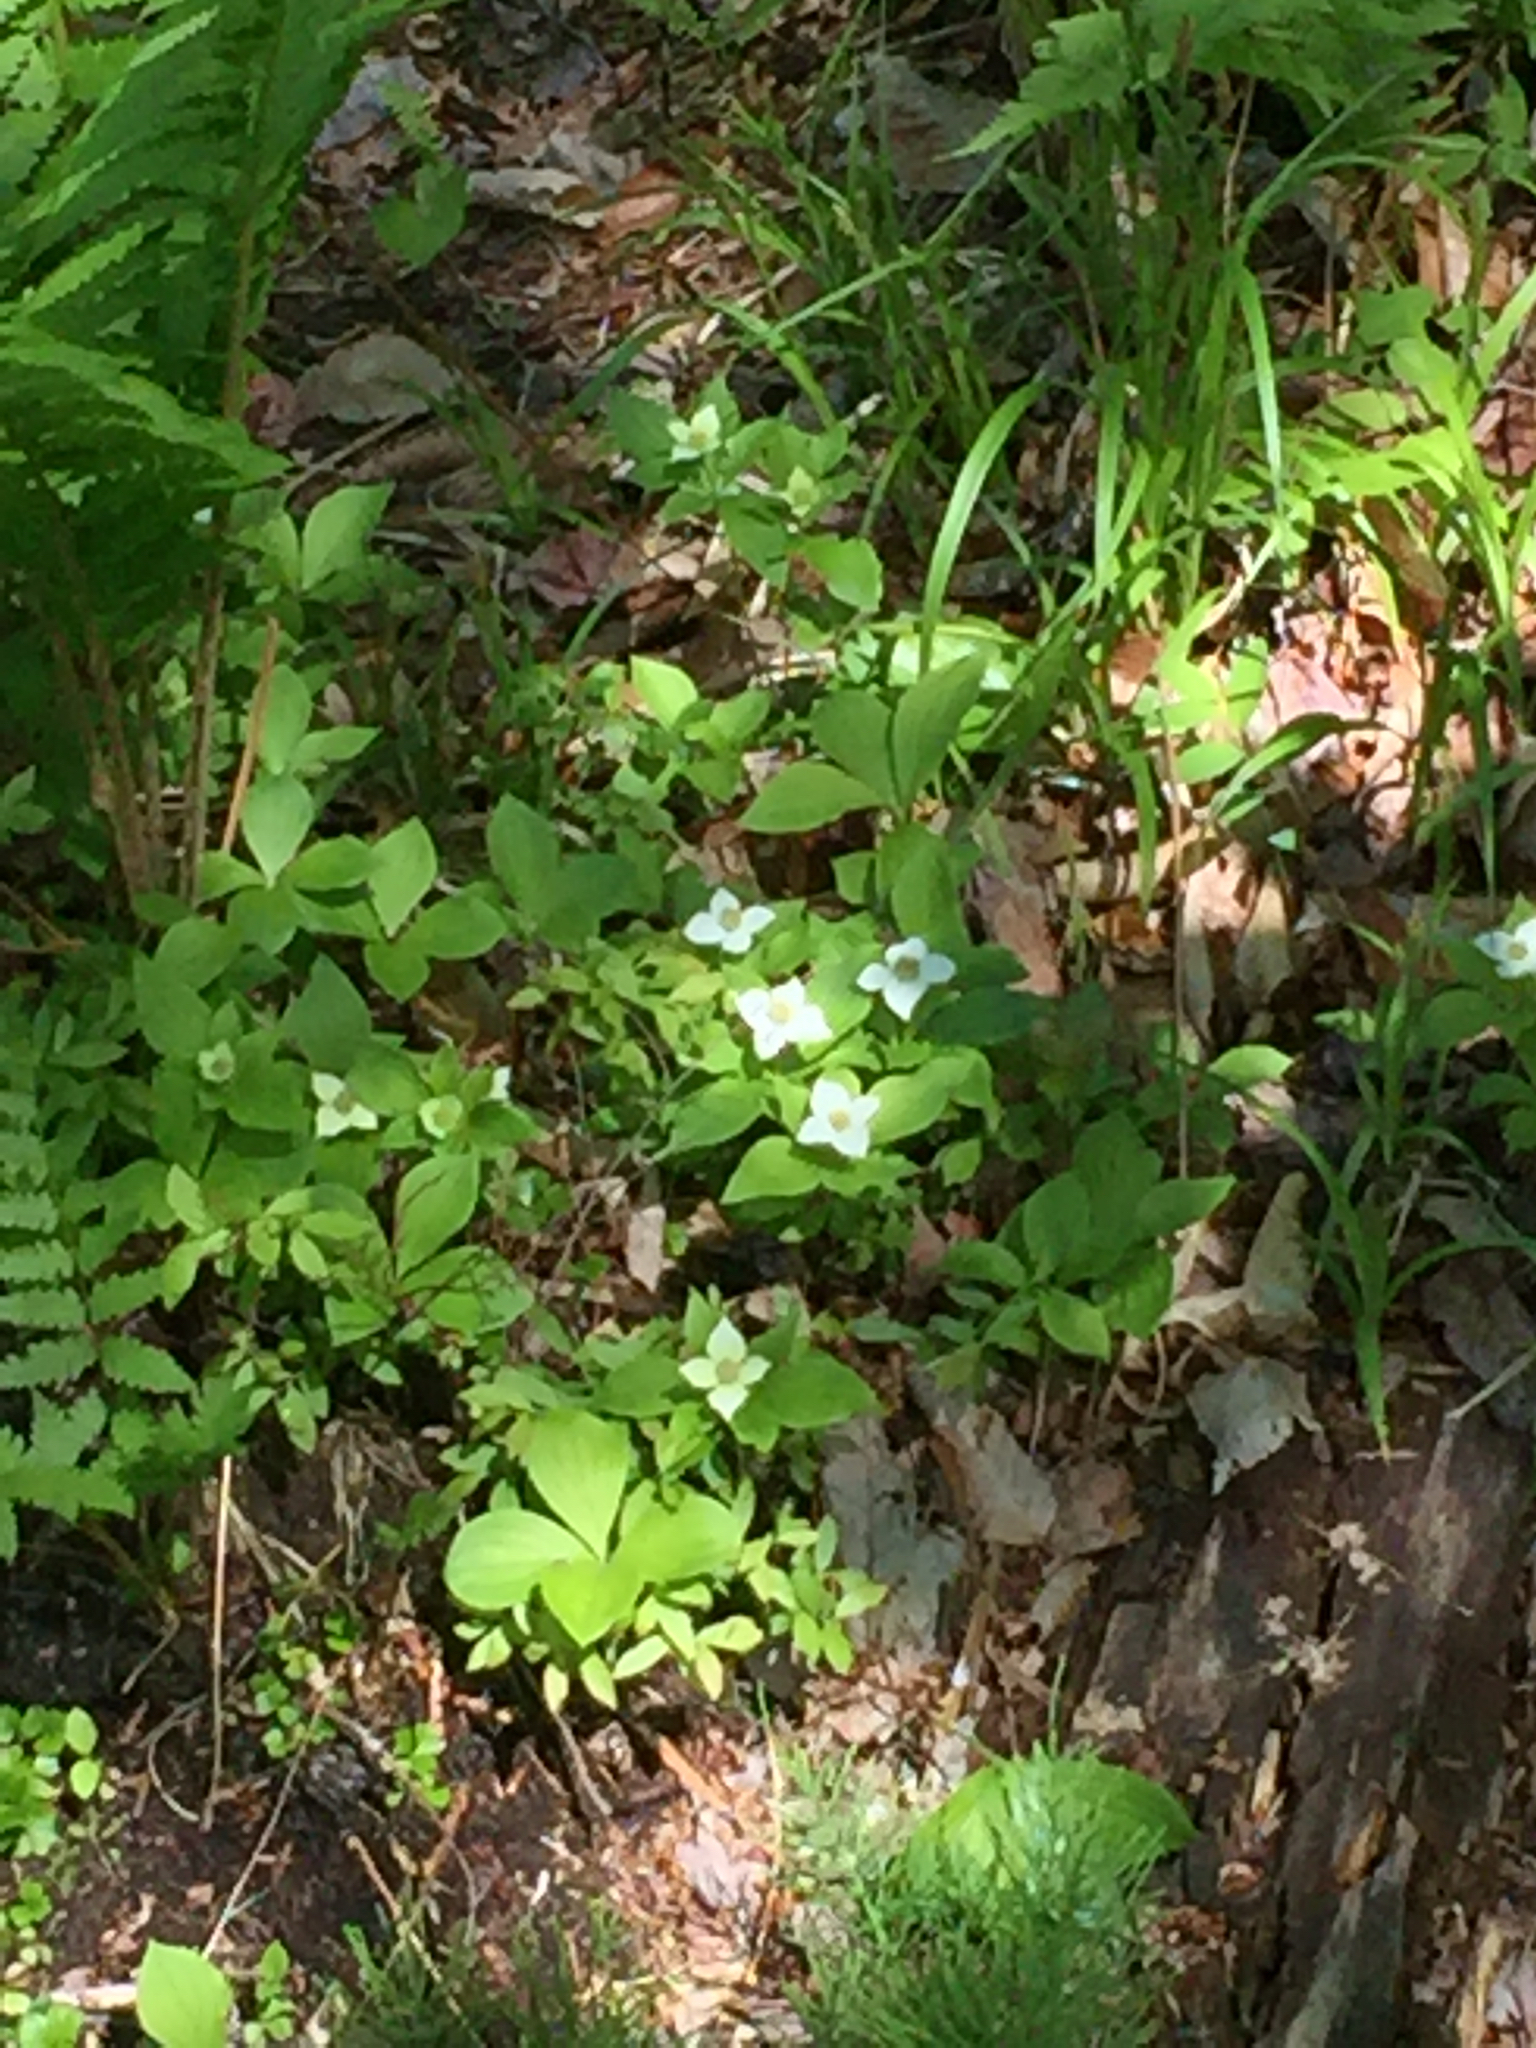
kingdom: Plantae
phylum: Tracheophyta
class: Magnoliopsida
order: Cornales
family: Cornaceae
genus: Cornus
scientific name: Cornus canadensis
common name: Creeping dogwood
